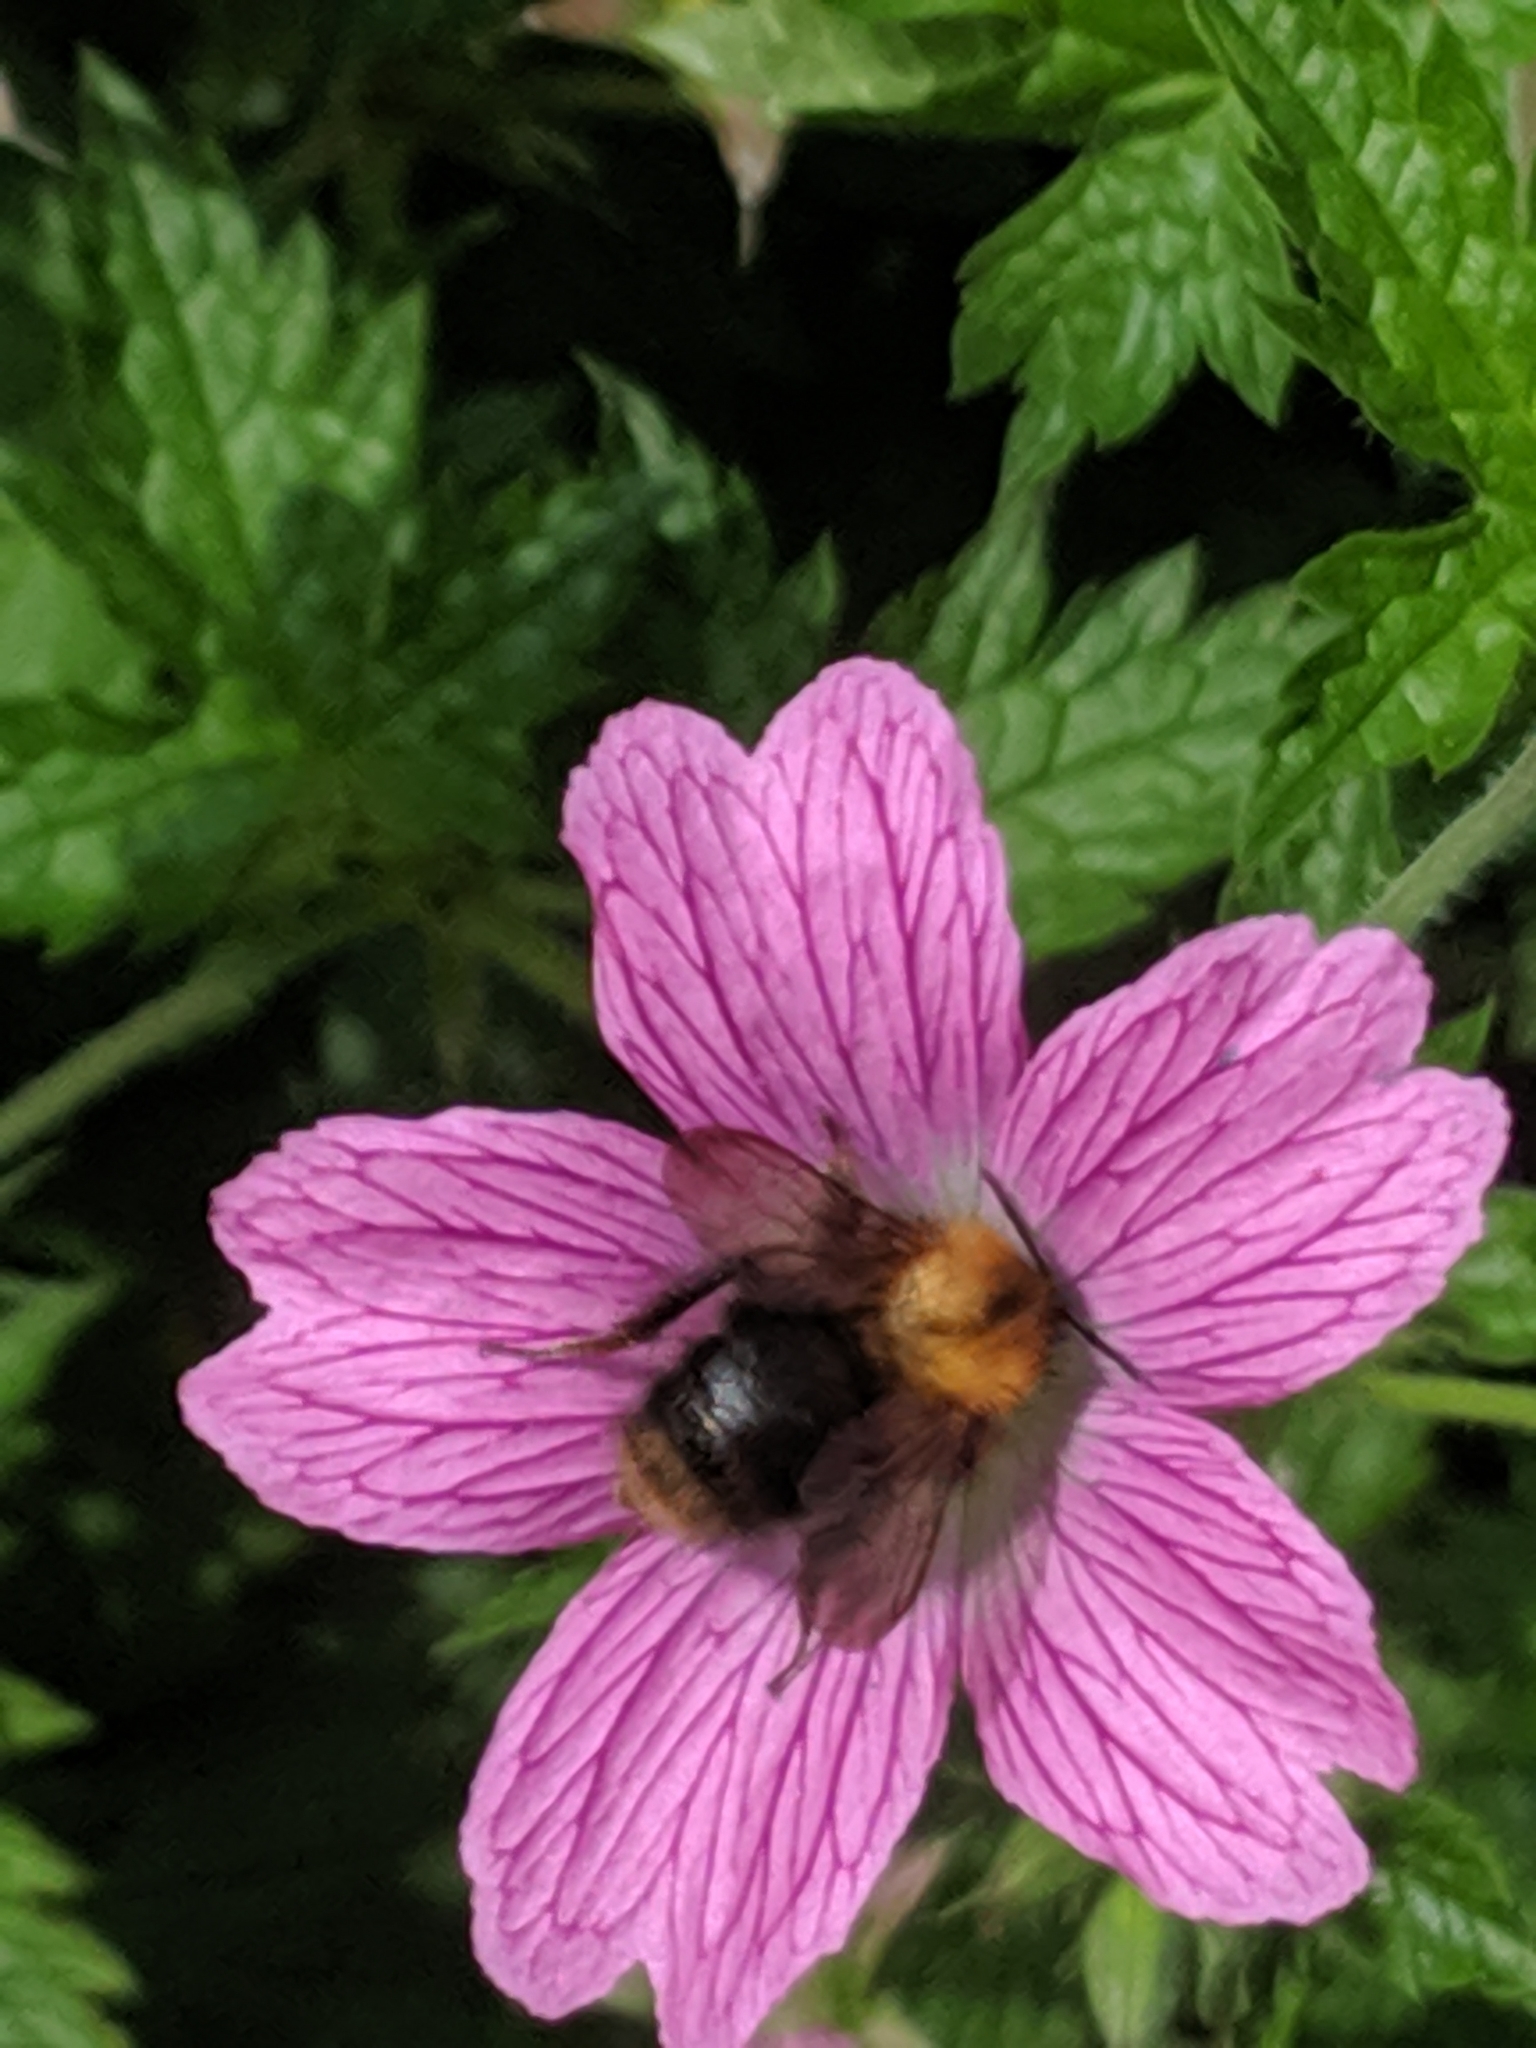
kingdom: Animalia
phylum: Arthropoda
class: Insecta
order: Hymenoptera
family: Apidae
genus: Bombus
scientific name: Bombus pascuorum
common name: Common carder bee
